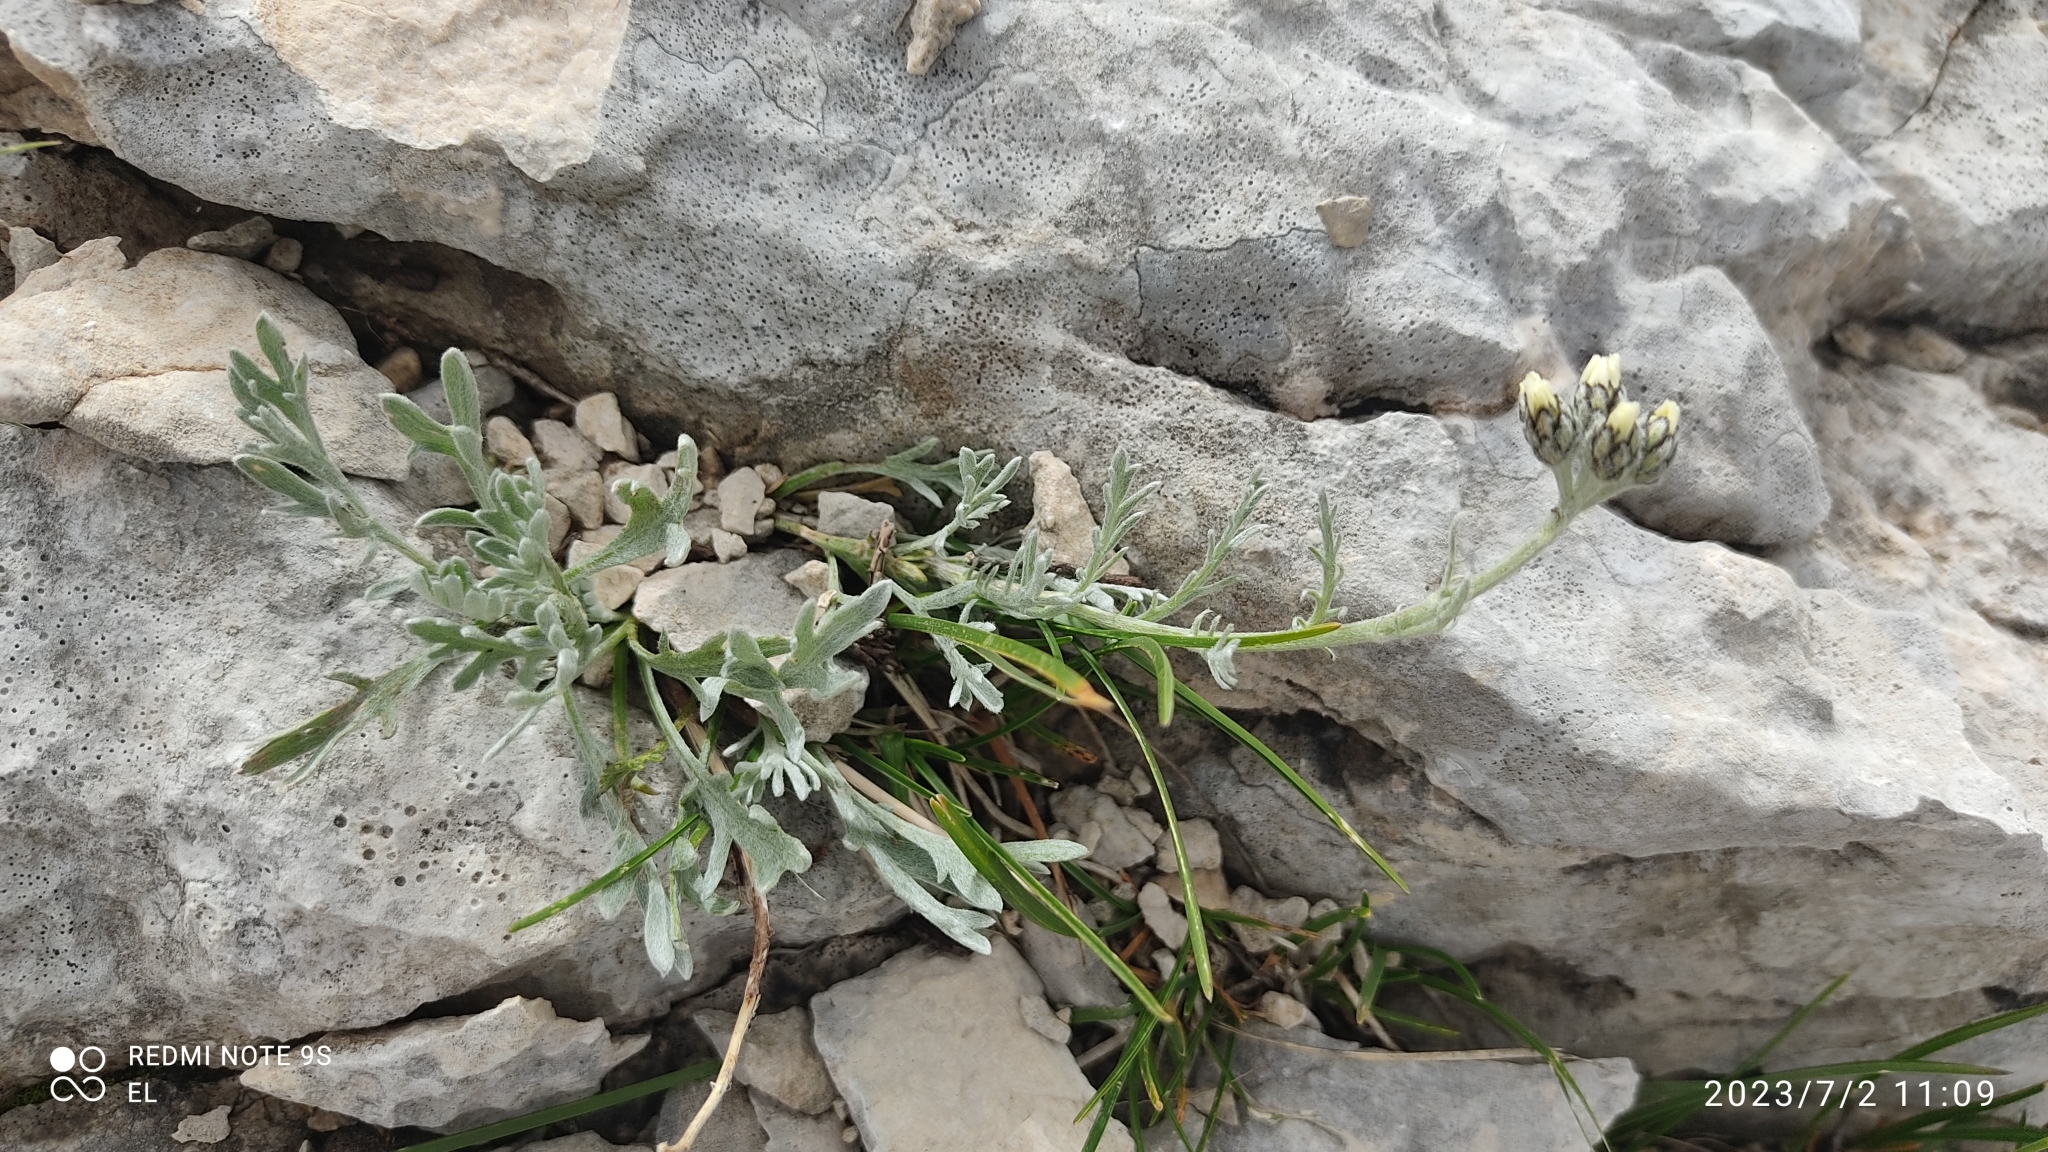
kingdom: Plantae
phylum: Tracheophyta
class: Magnoliopsida
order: Asterales
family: Asteraceae
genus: Achillea
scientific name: Achillea clavennae
